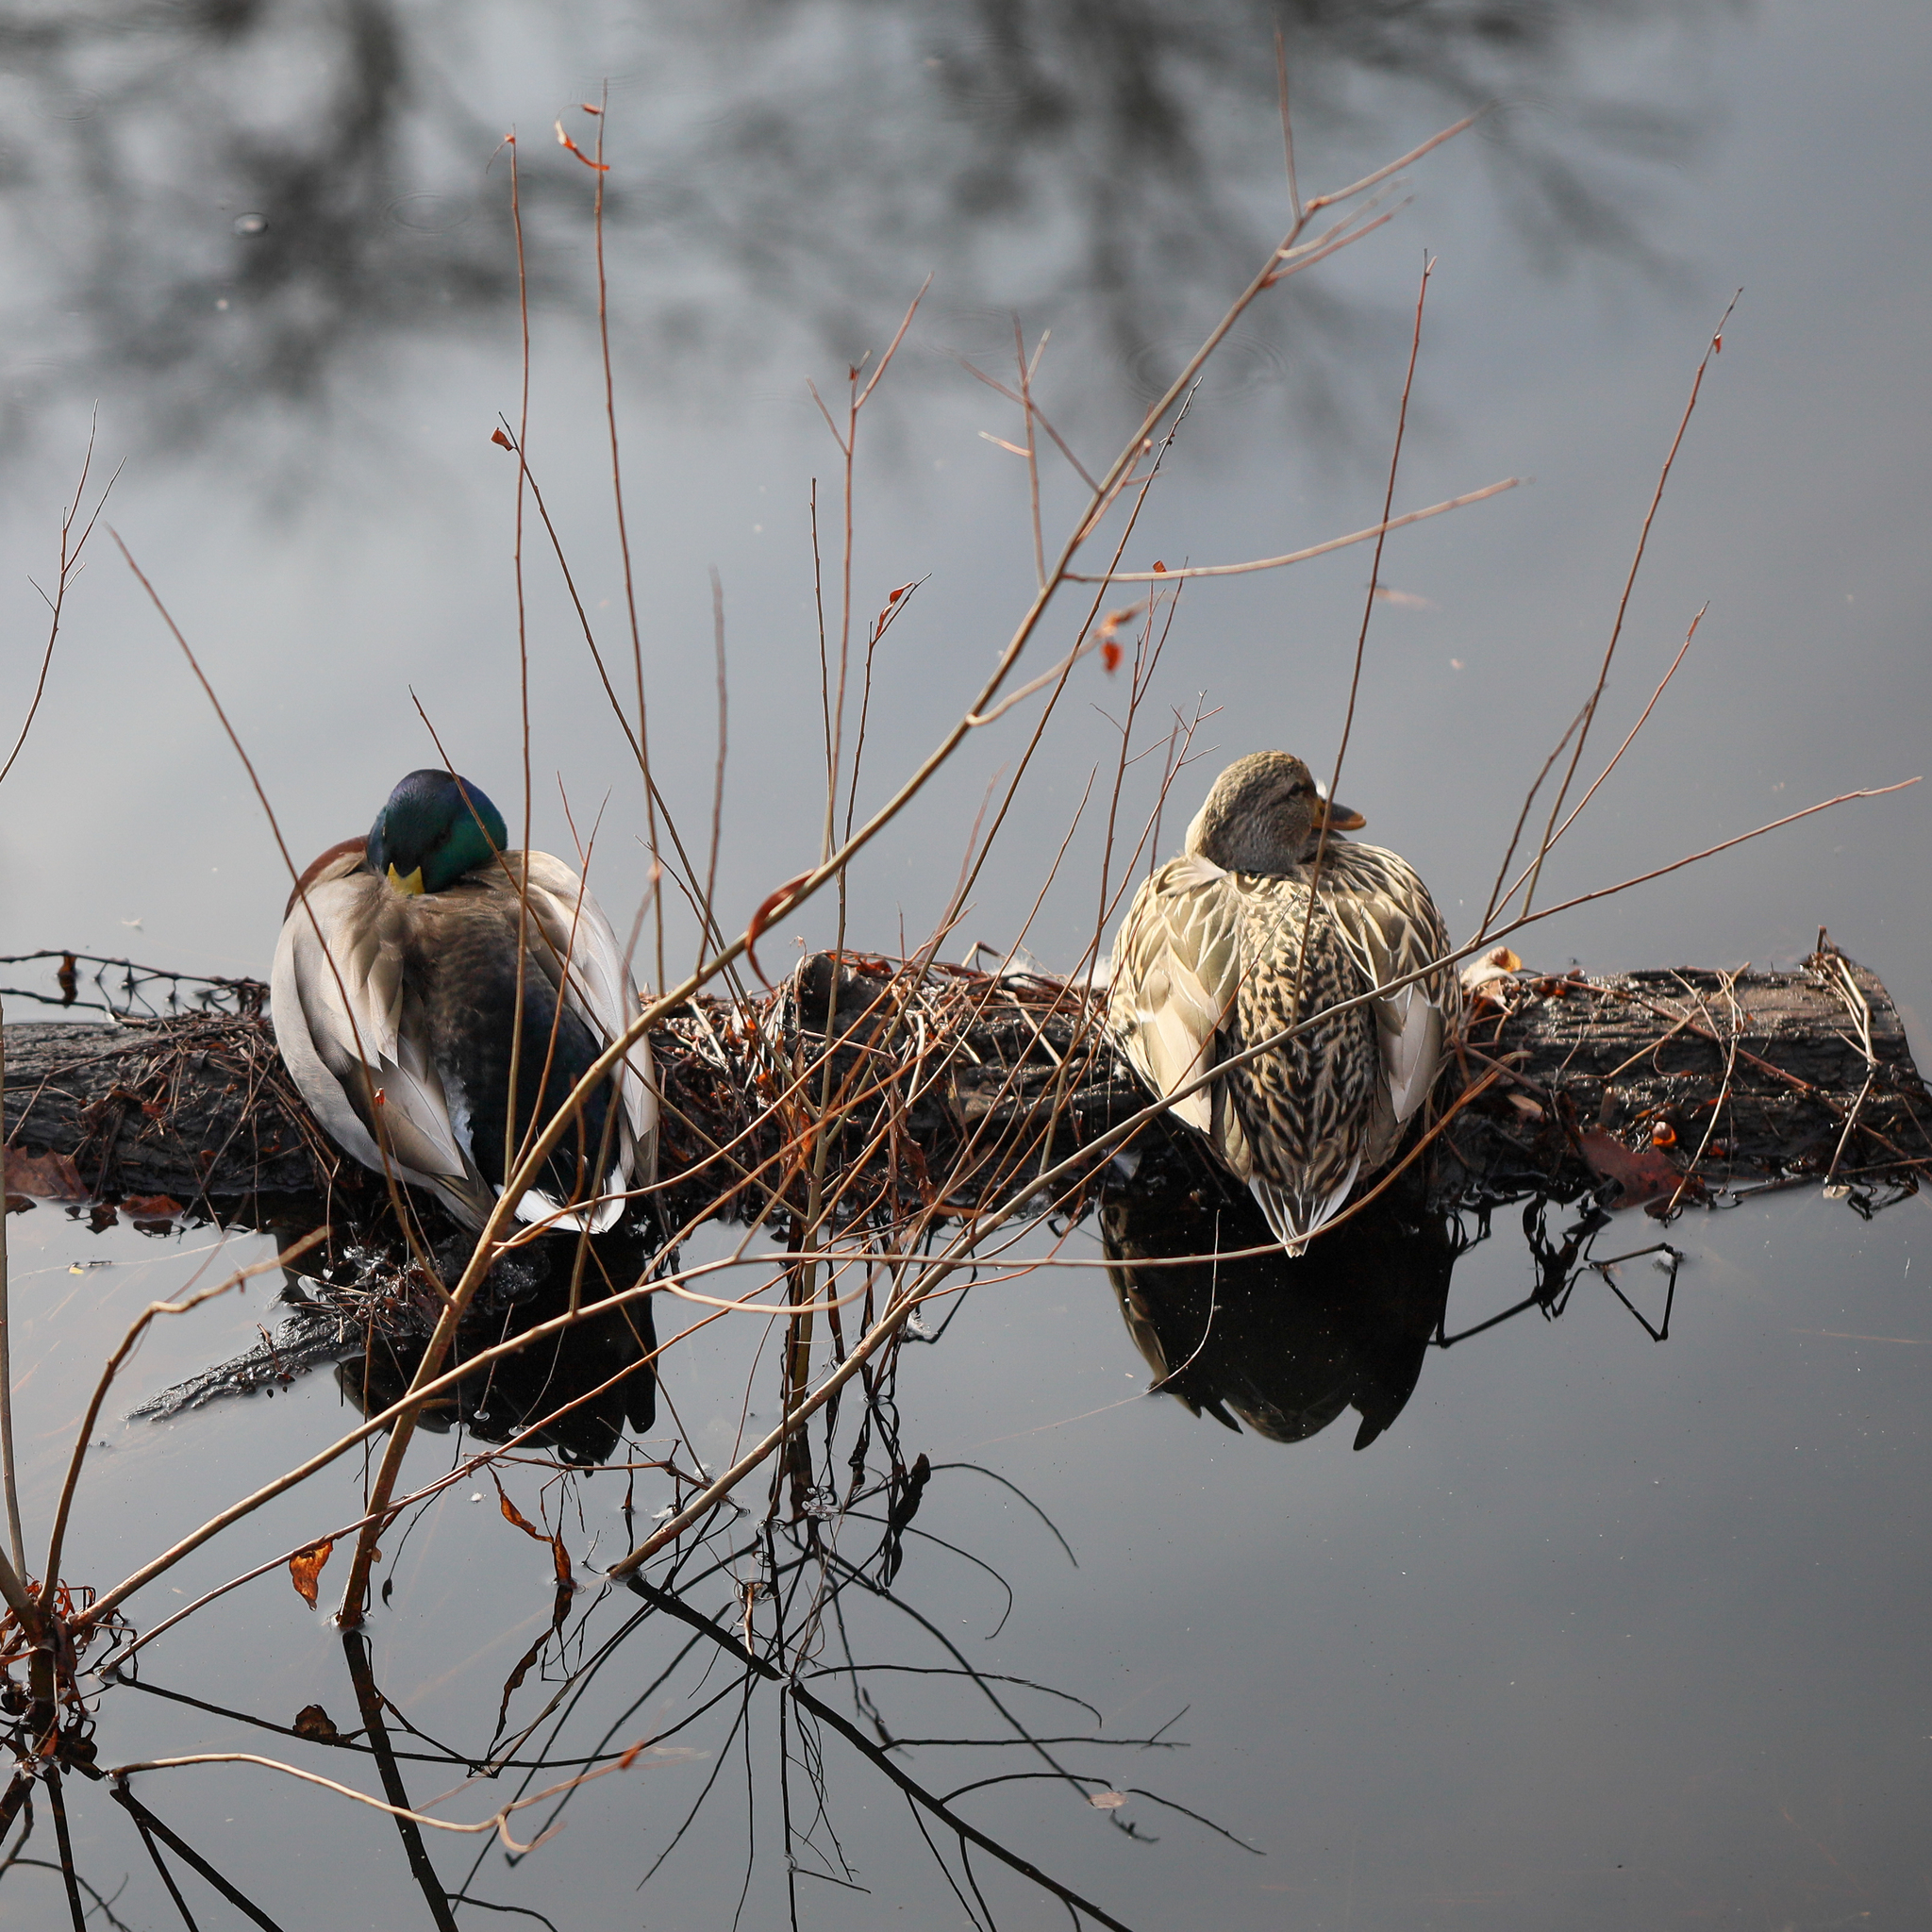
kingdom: Animalia
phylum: Chordata
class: Aves
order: Anseriformes
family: Anatidae
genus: Anas
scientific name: Anas platyrhynchos
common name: Mallard
